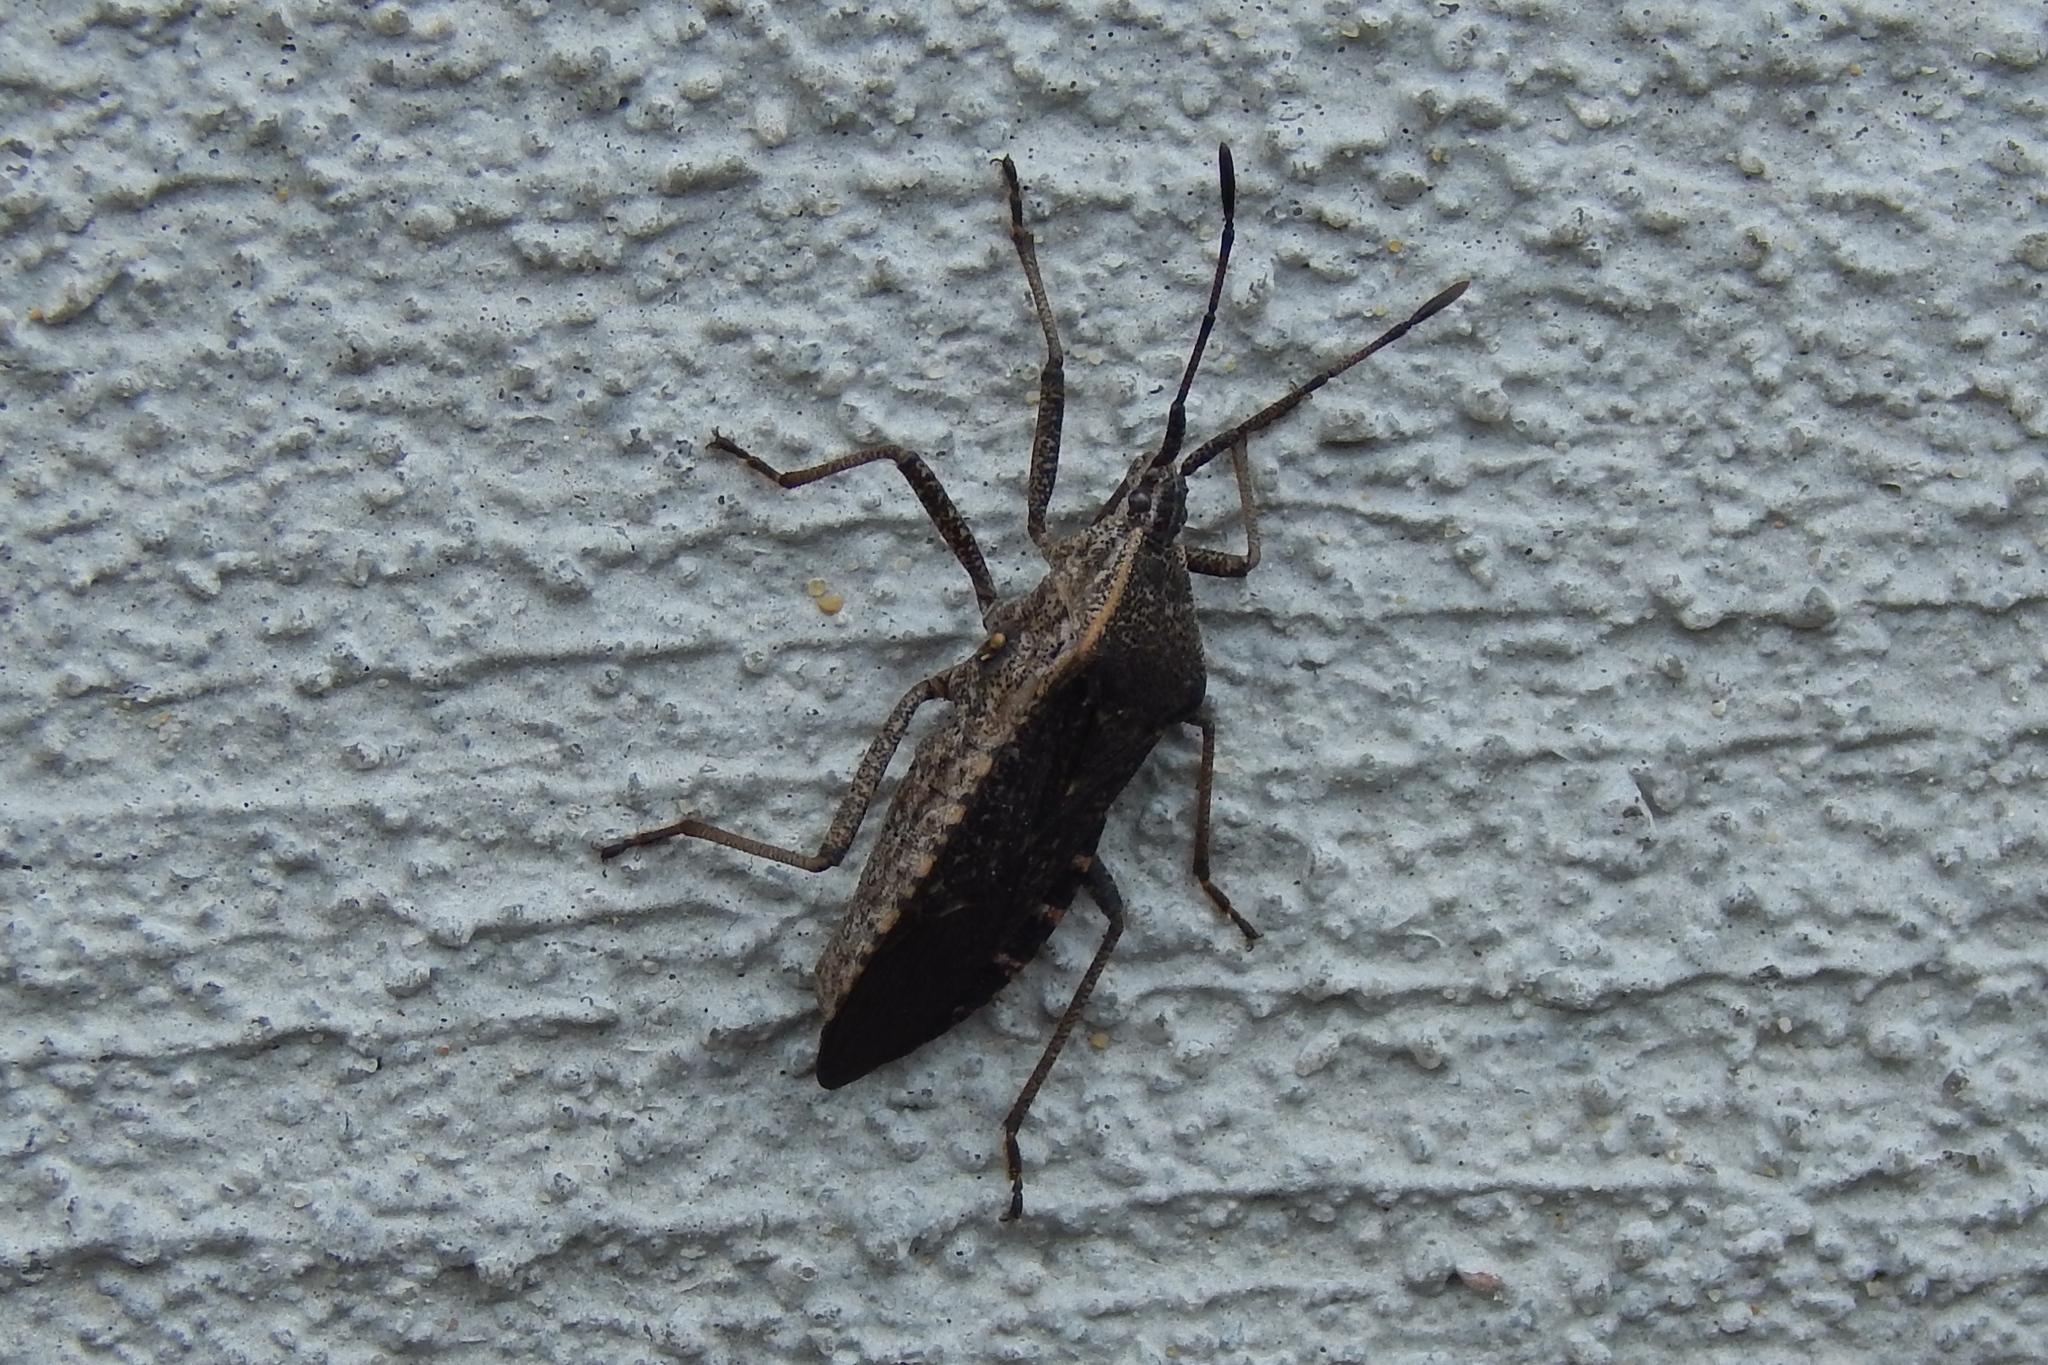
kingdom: Animalia
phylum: Arthropoda
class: Insecta
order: Hemiptera
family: Coreidae
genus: Anasa
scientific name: Anasa tristis
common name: Squash bug
